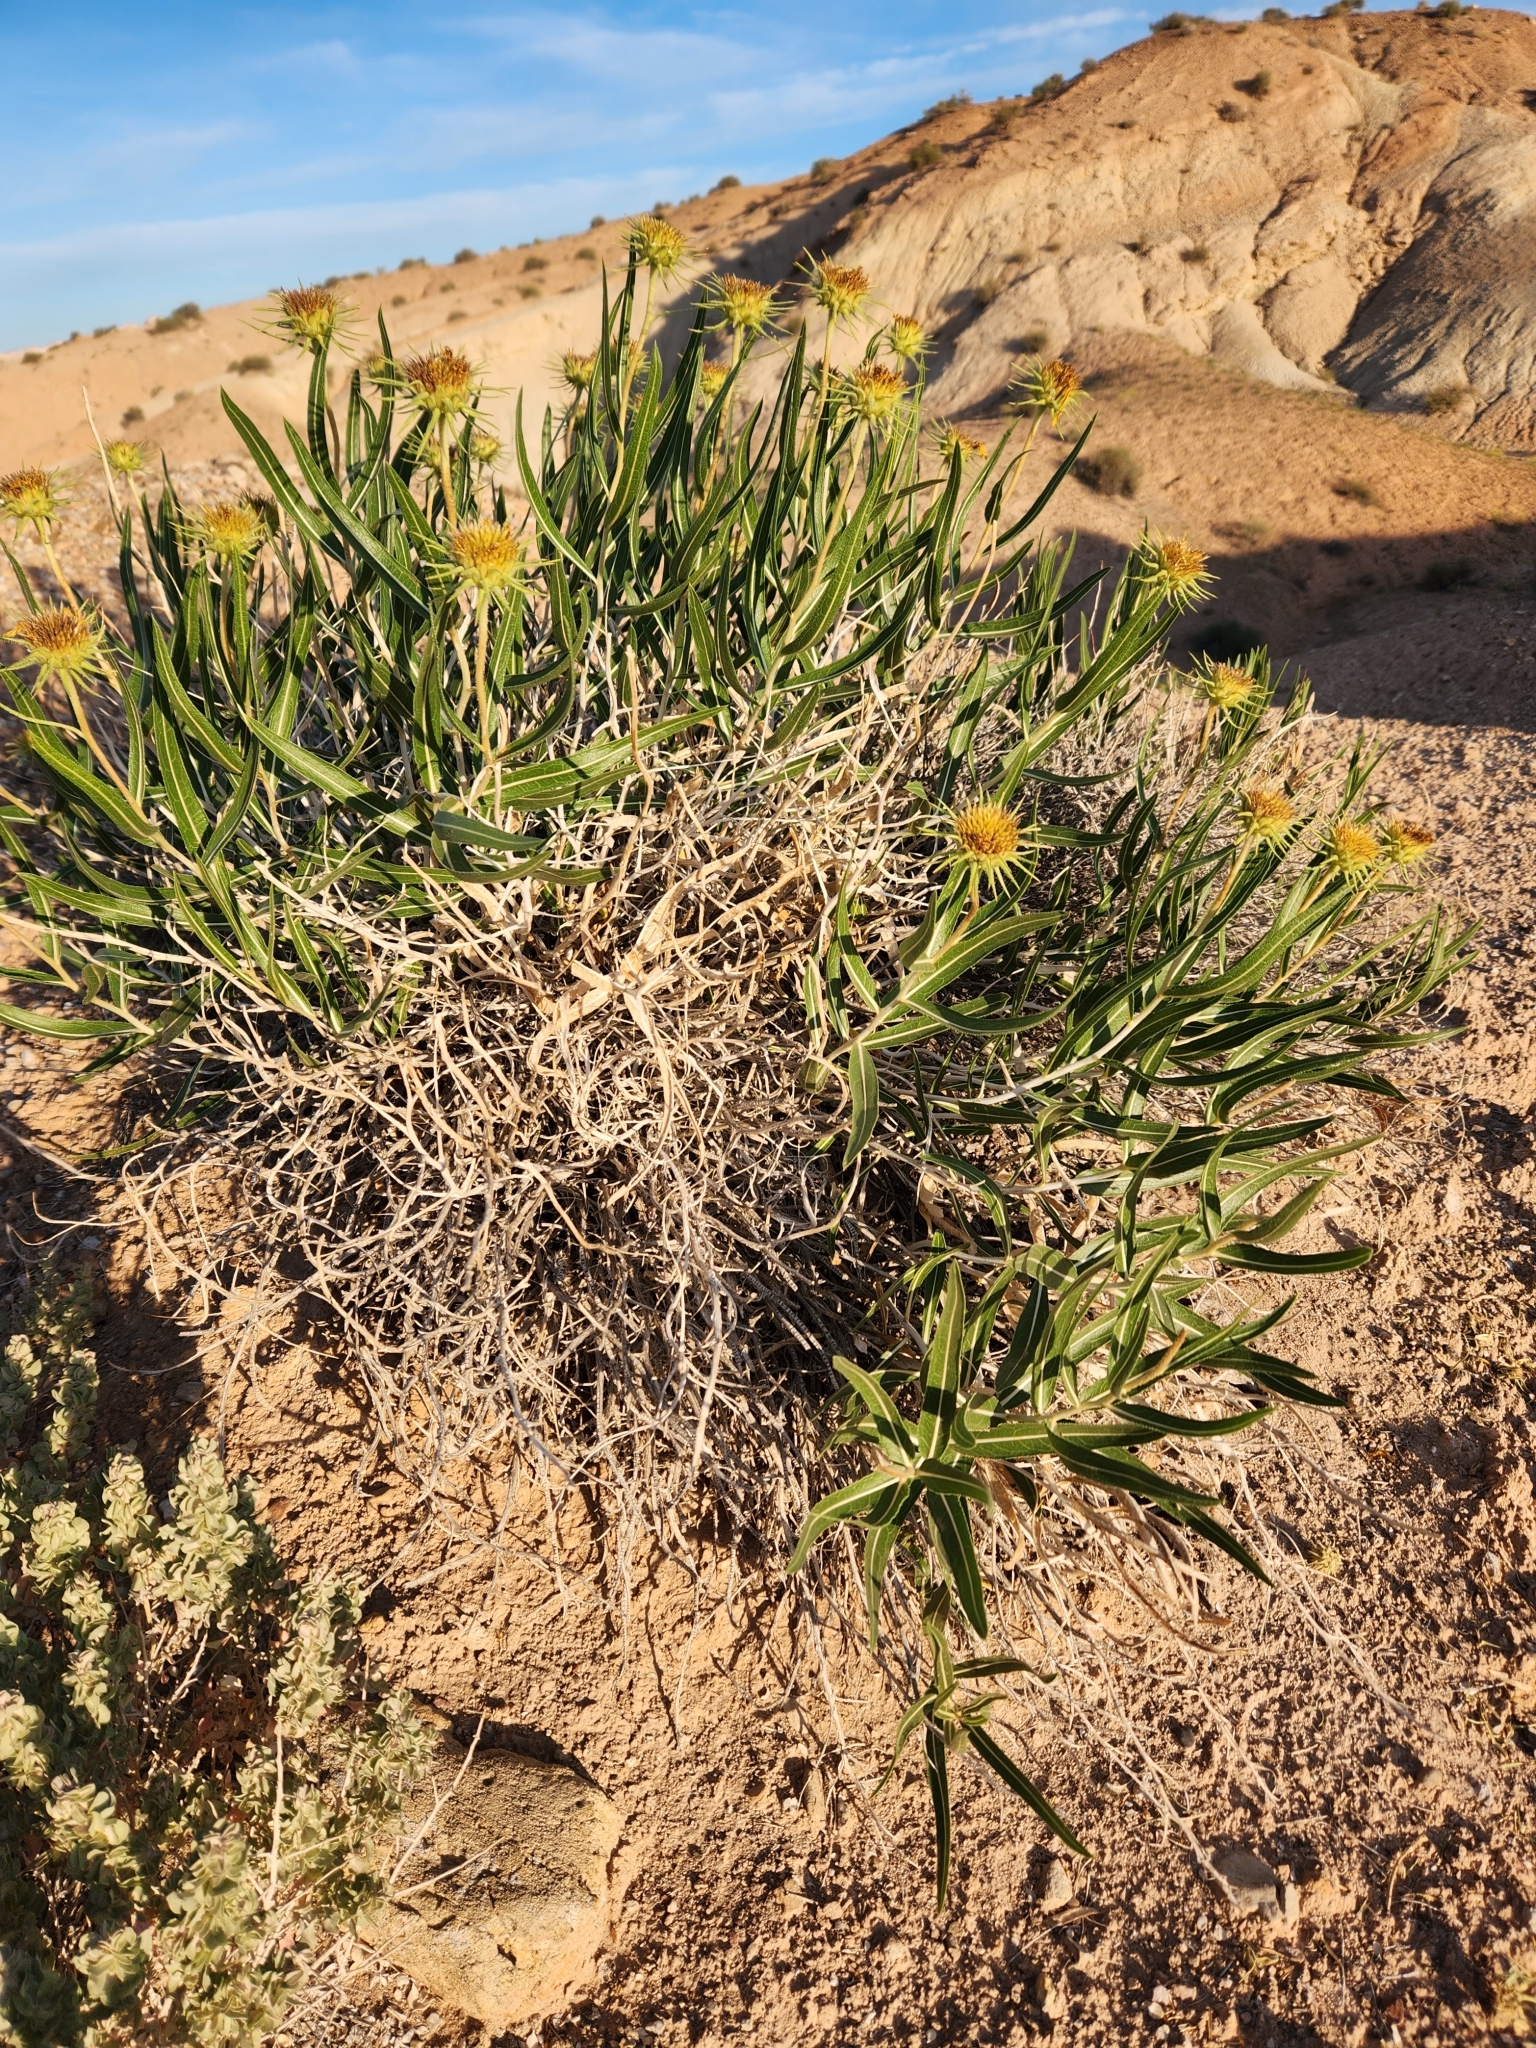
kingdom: Plantae
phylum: Tracheophyta
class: Magnoliopsida
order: Asterales
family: Asteraceae
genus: Scabrethia
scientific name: Scabrethia scabra
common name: Rough mules's-ears
